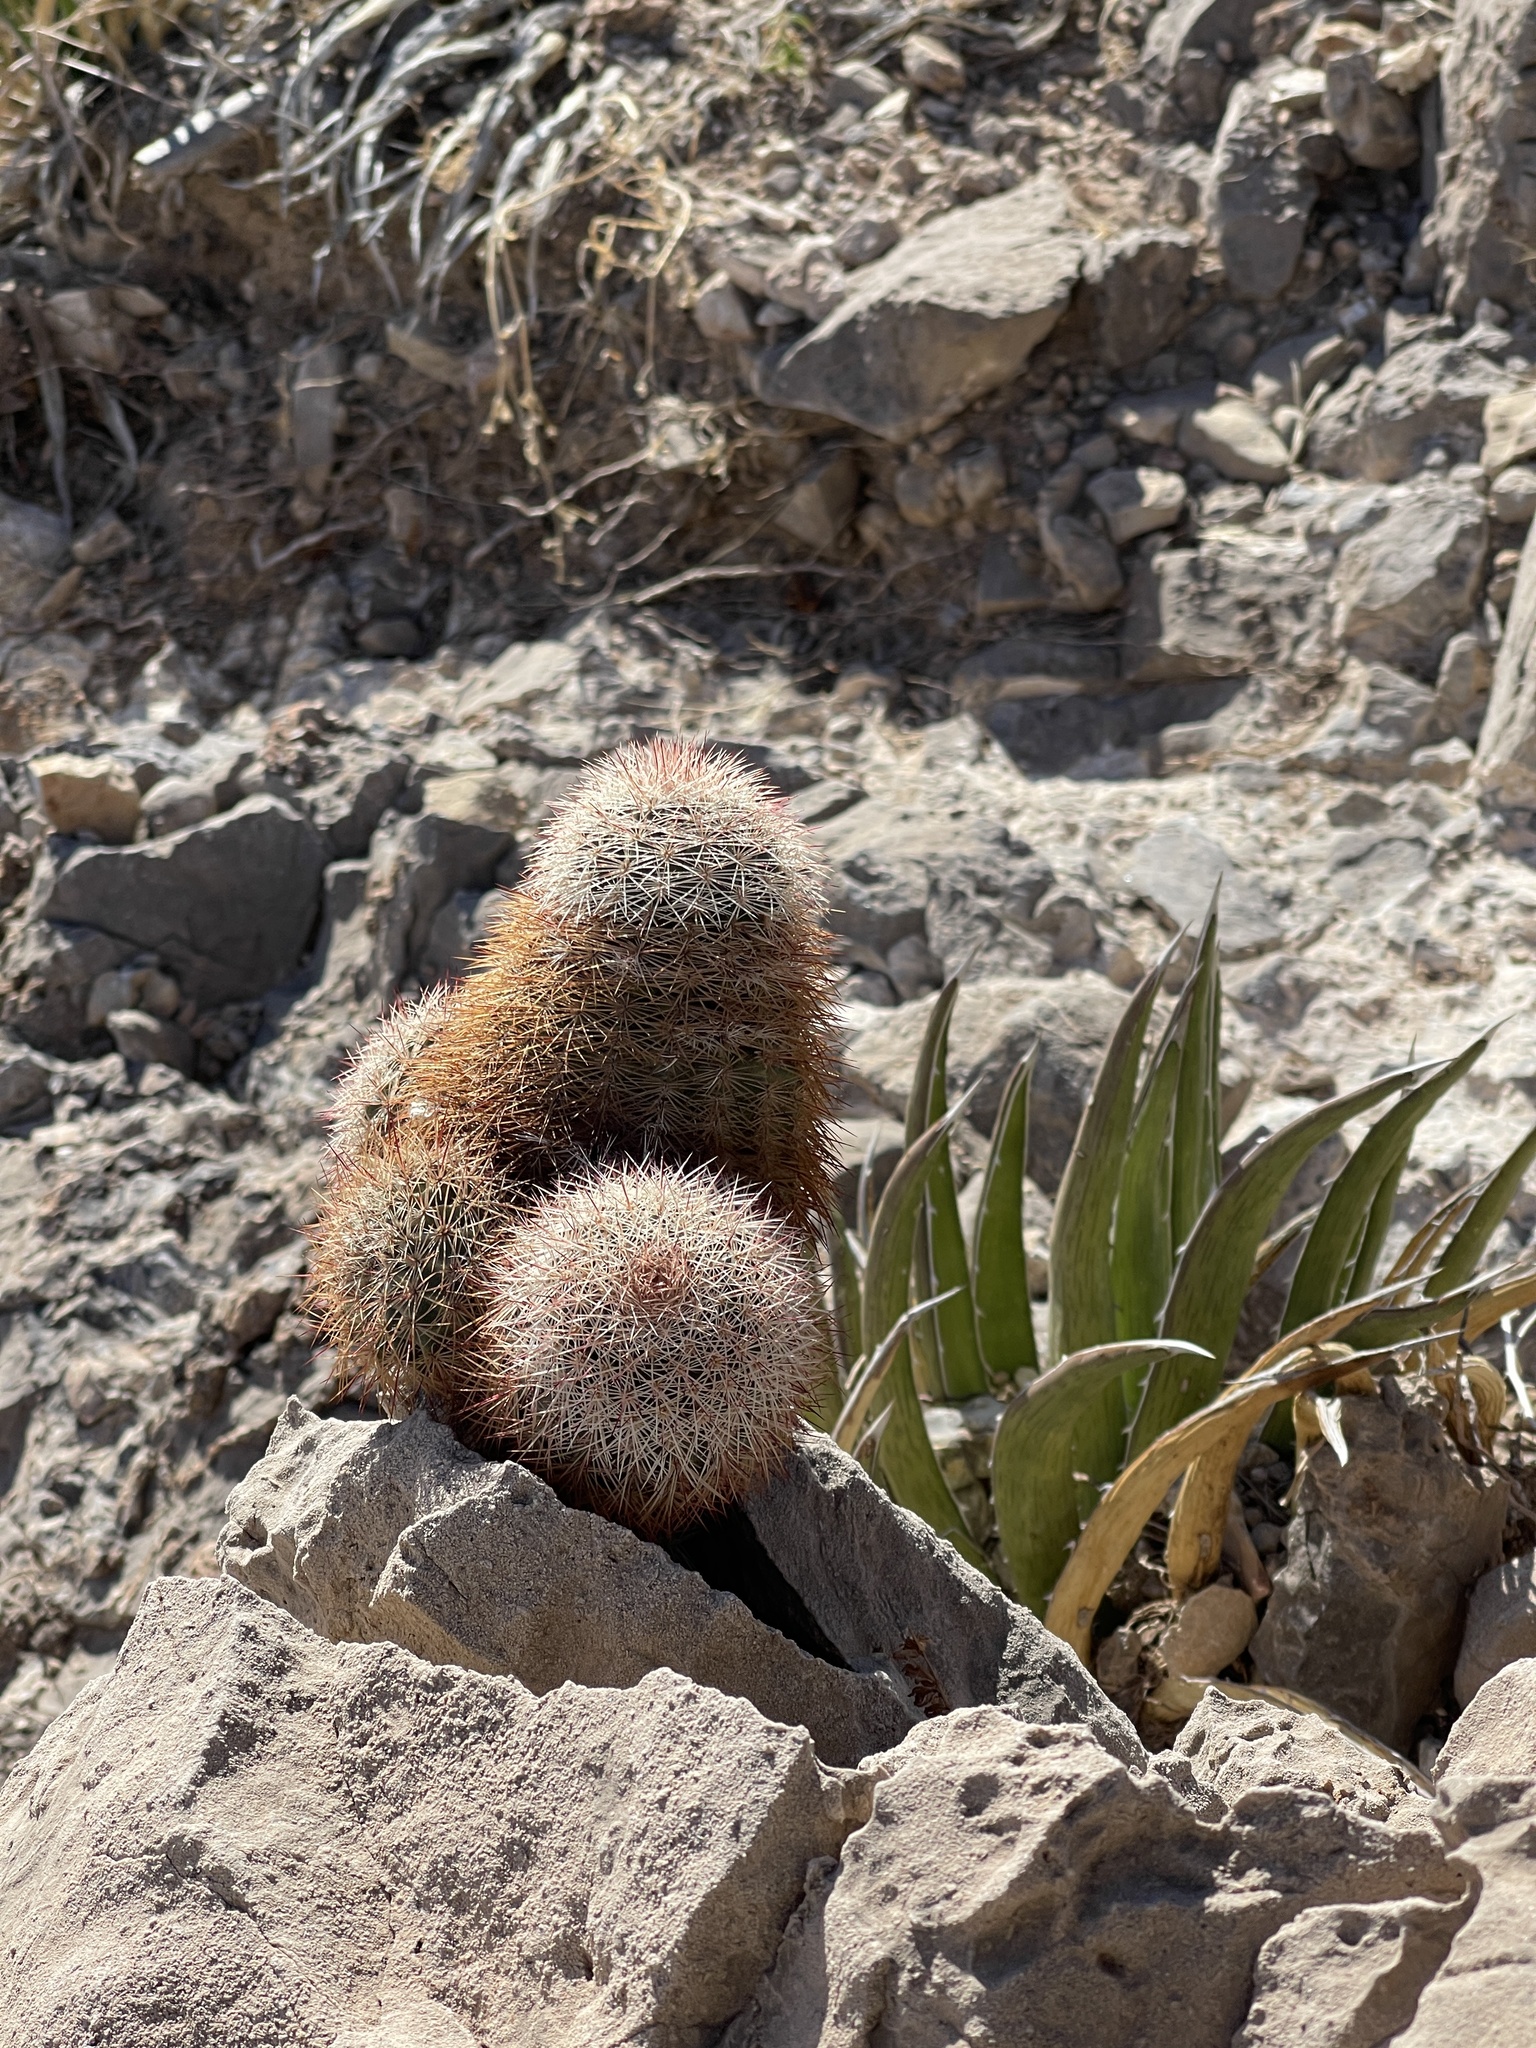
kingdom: Plantae
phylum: Tracheophyta
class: Magnoliopsida
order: Caryophyllales
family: Cactaceae
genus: Echinocereus
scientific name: Echinocereus dasyacanthus
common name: Spiny hedgehog cactus
